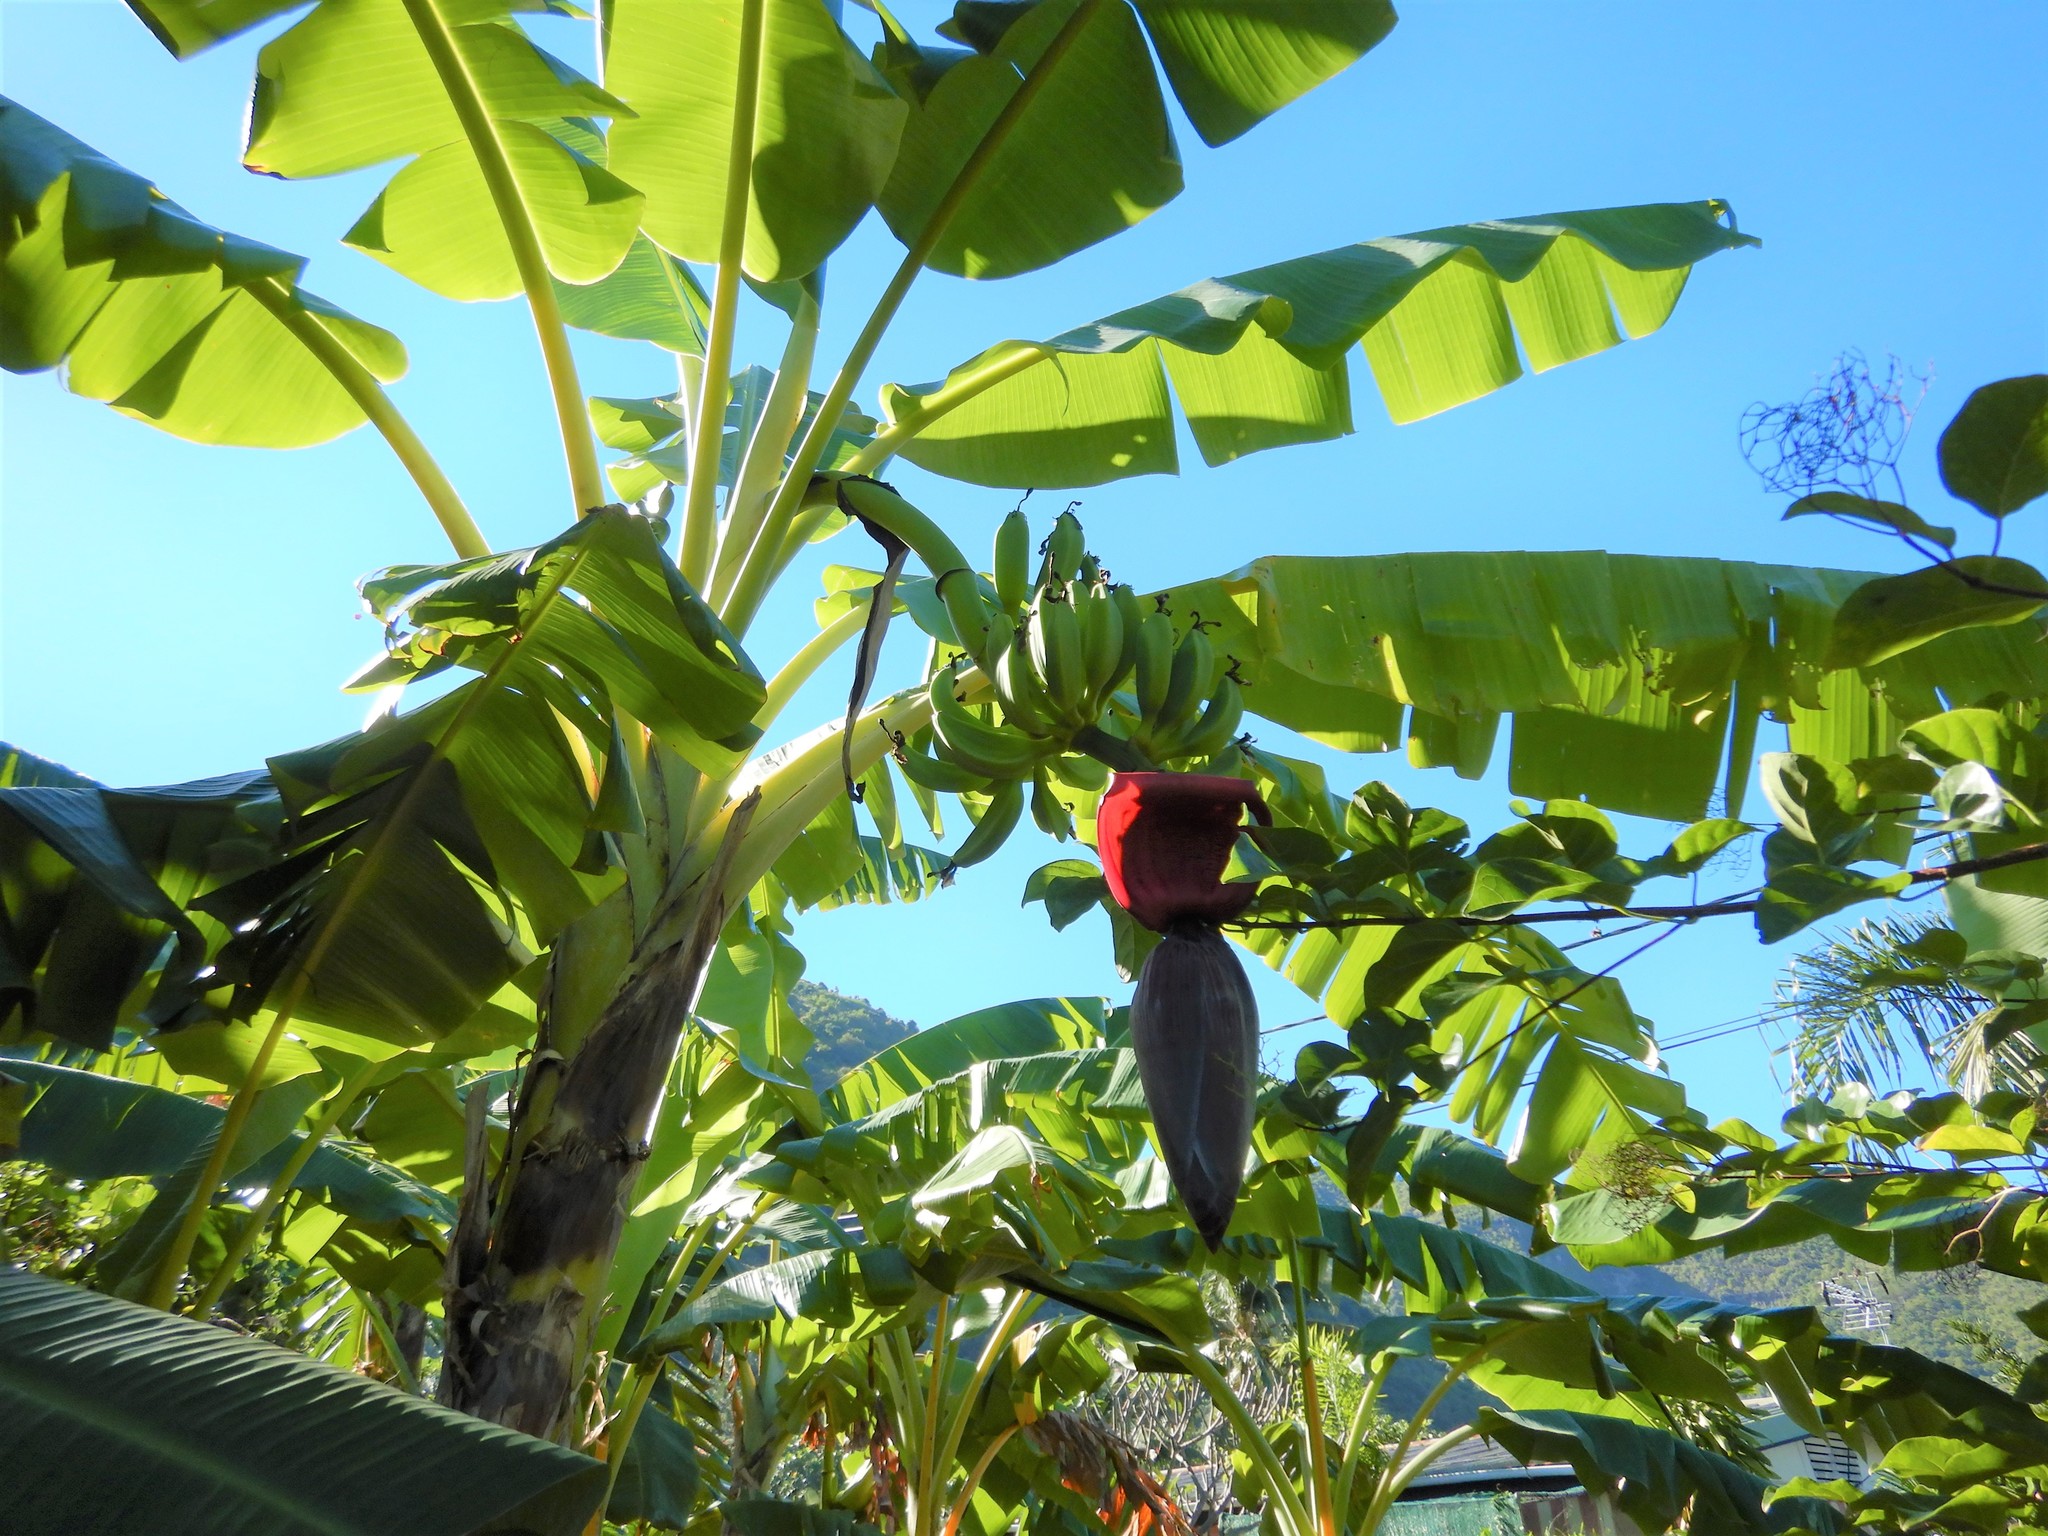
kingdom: Plantae
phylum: Tracheophyta
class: Liliopsida
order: Zingiberales
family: Musaceae
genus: Musa
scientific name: Musa paradisiaca
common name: French plantain
